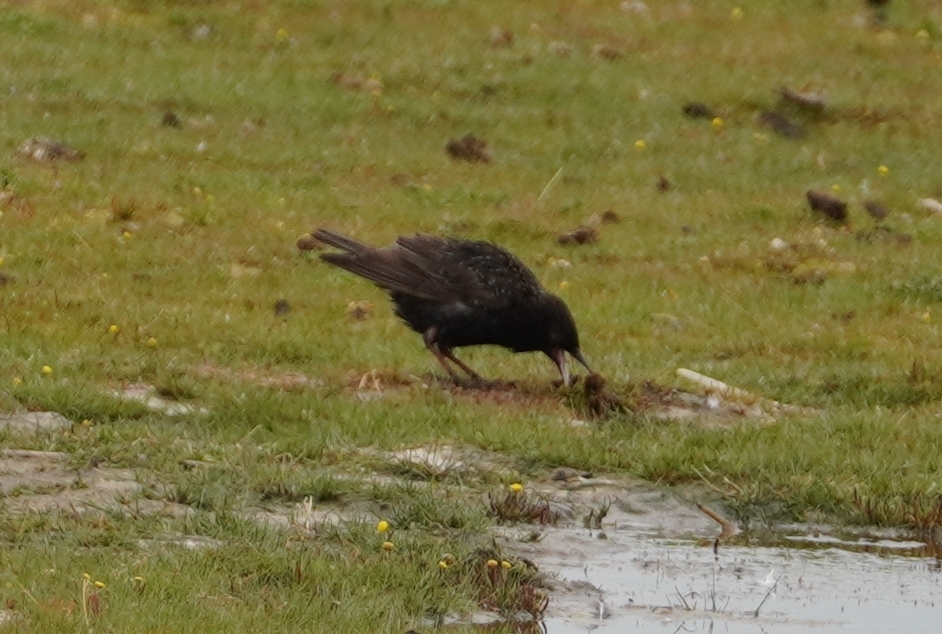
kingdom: Animalia
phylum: Chordata
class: Aves
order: Passeriformes
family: Sturnidae
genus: Sturnus
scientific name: Sturnus vulgaris
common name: Common starling
